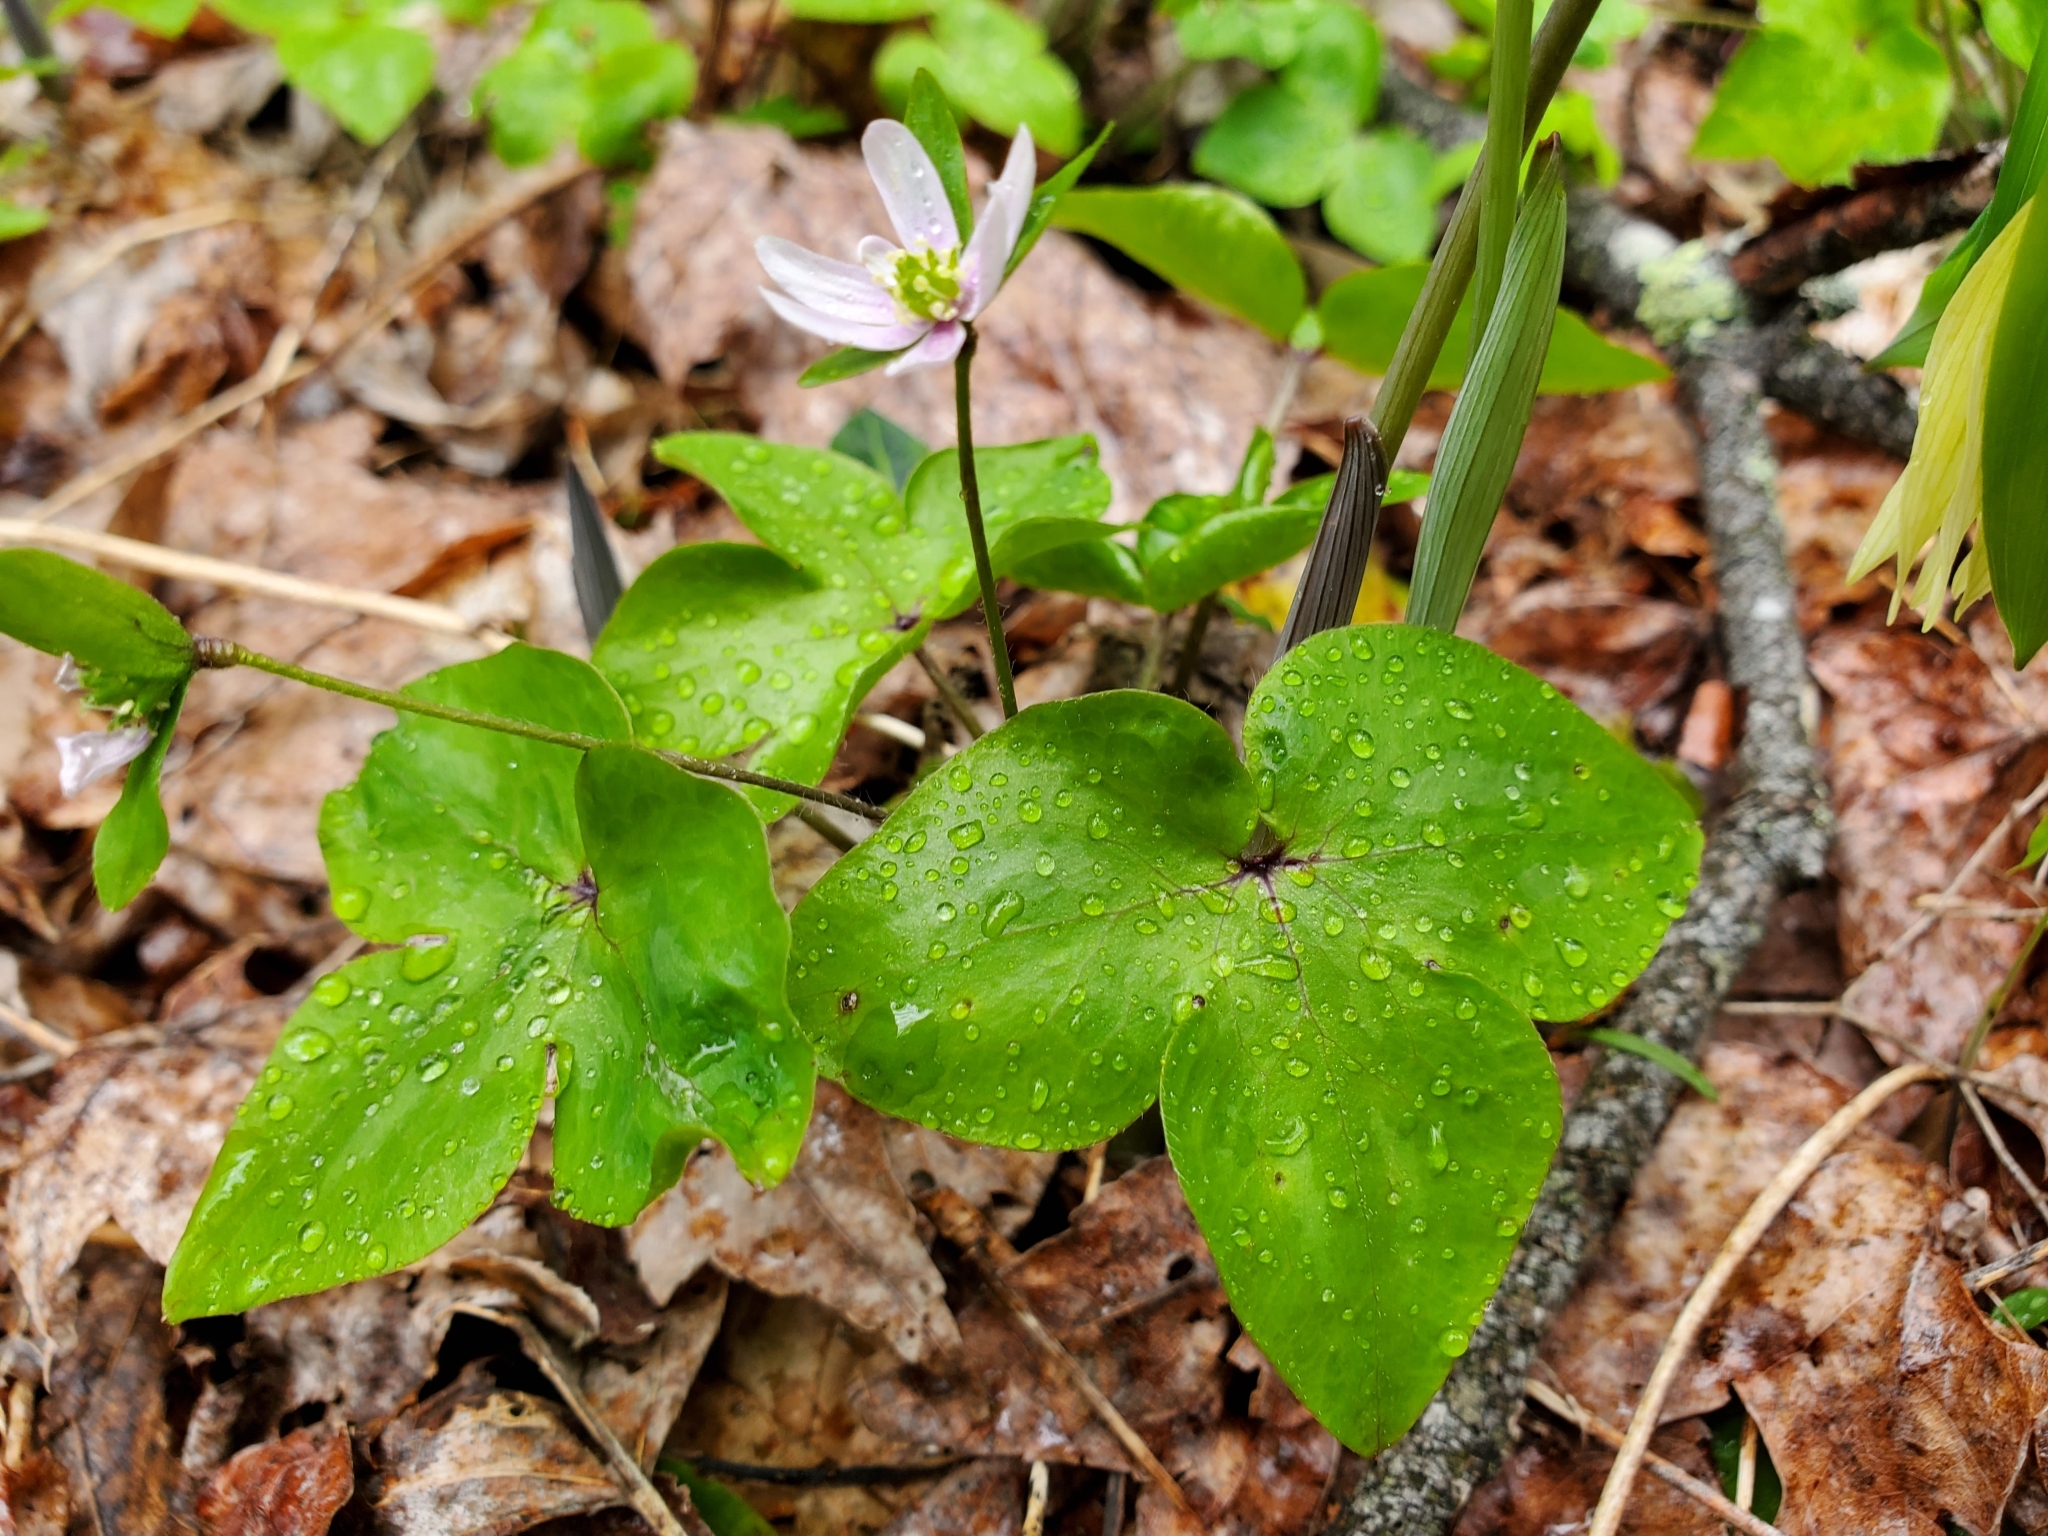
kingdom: Plantae
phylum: Tracheophyta
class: Magnoliopsida
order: Ranunculales
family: Ranunculaceae
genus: Hepatica
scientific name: Hepatica acutiloba
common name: Sharp-lobed hepatica
